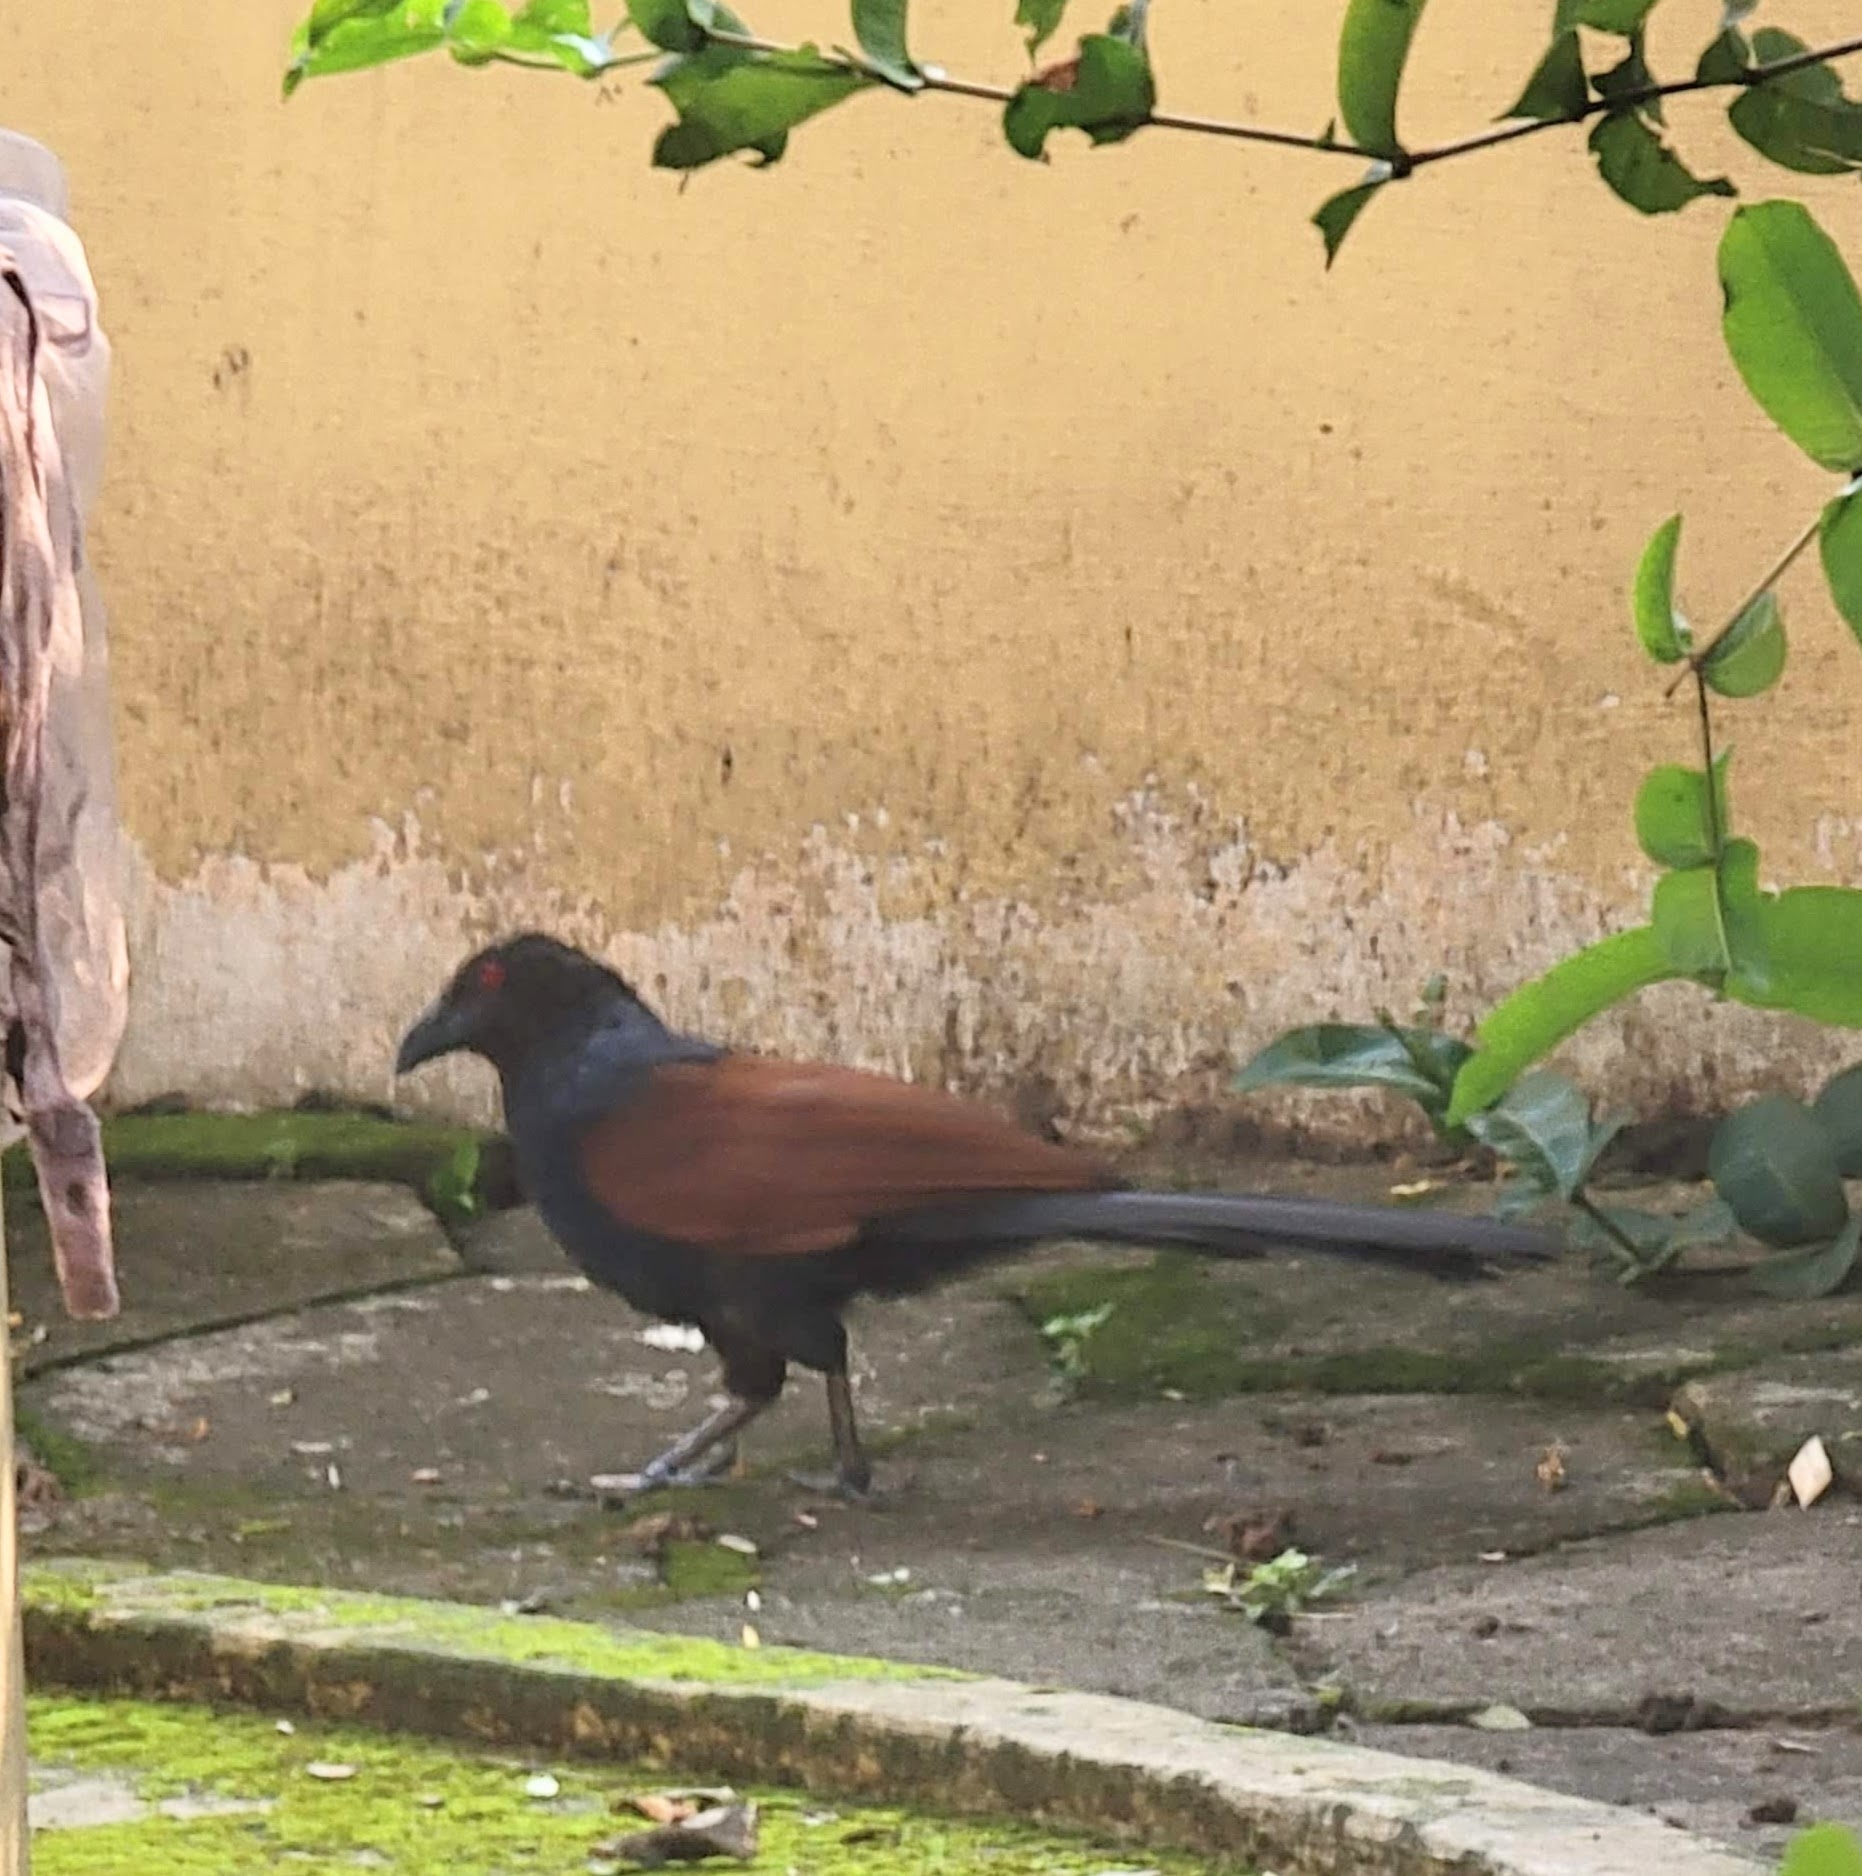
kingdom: Animalia
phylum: Chordata
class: Aves
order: Cuculiformes
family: Cuculidae
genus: Centropus
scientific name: Centropus sinensis
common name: Greater coucal
